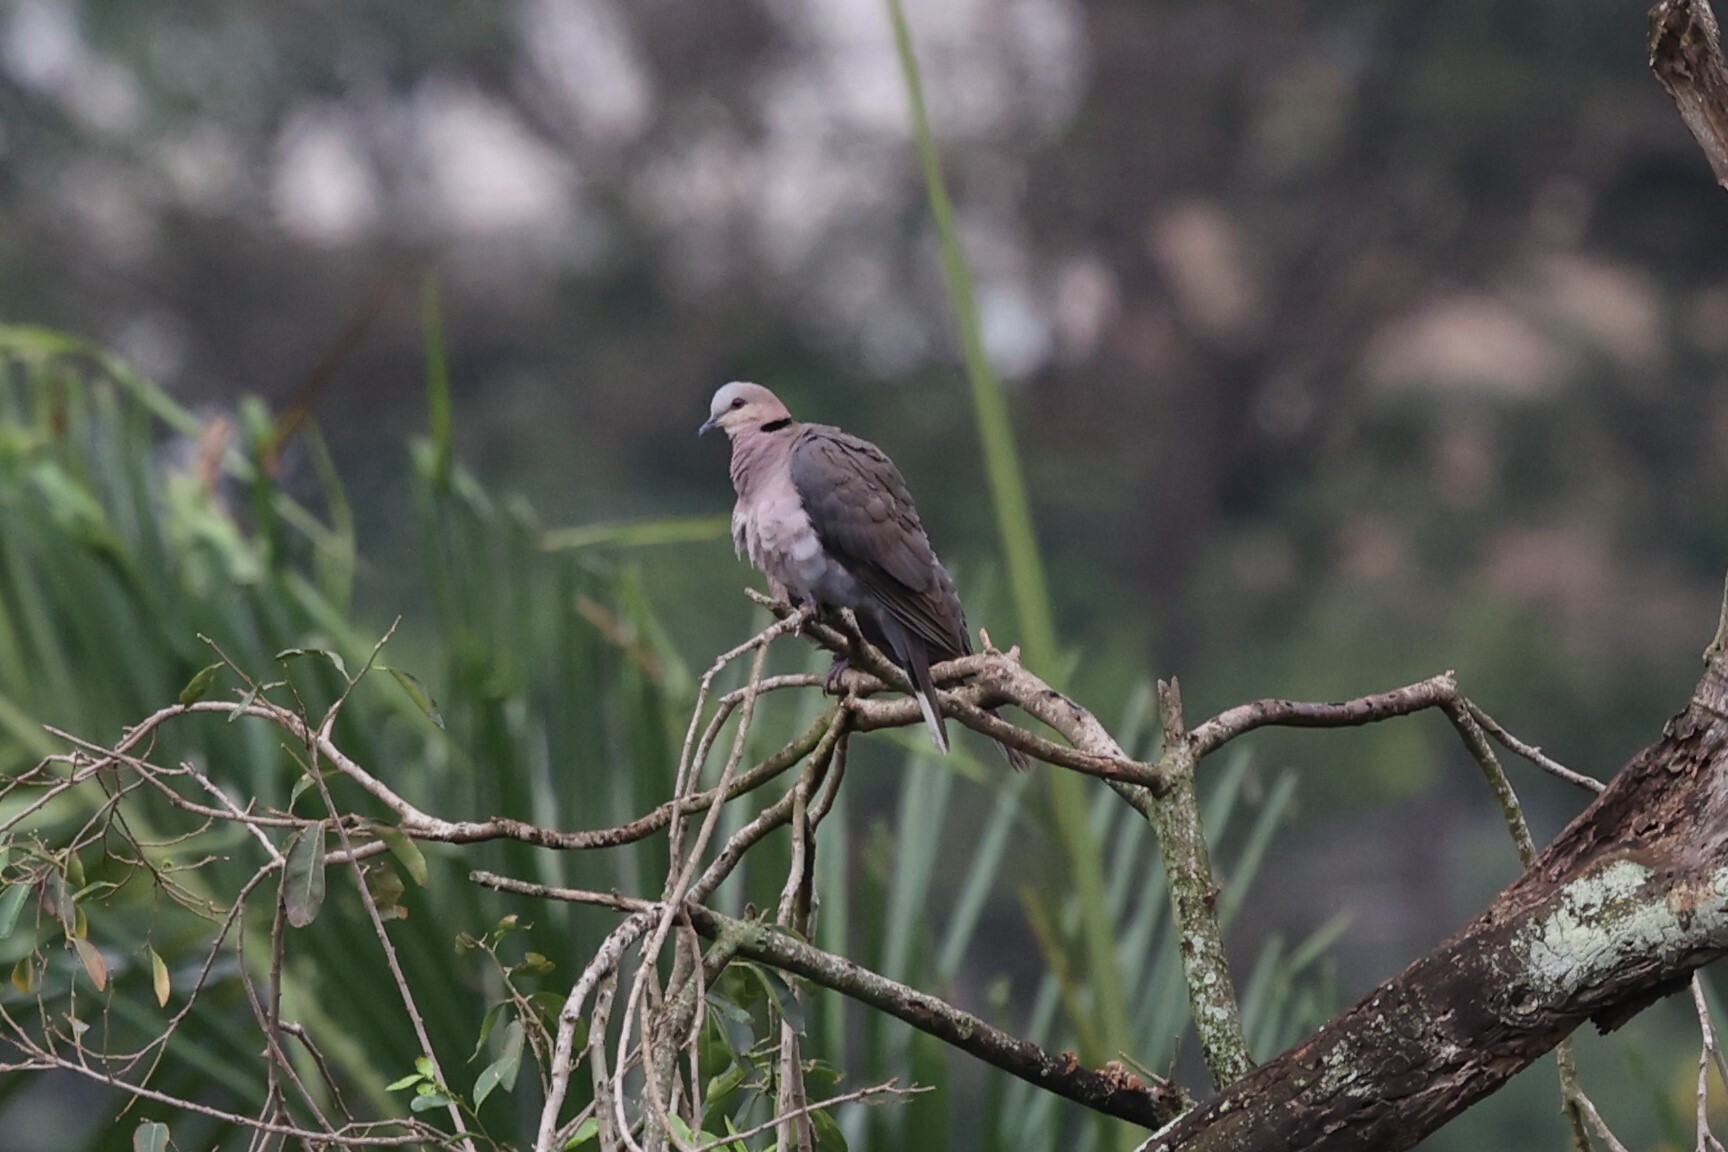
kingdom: Animalia
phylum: Chordata
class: Aves
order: Columbiformes
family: Columbidae
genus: Streptopelia
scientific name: Streptopelia semitorquata
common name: Red-eyed dove
